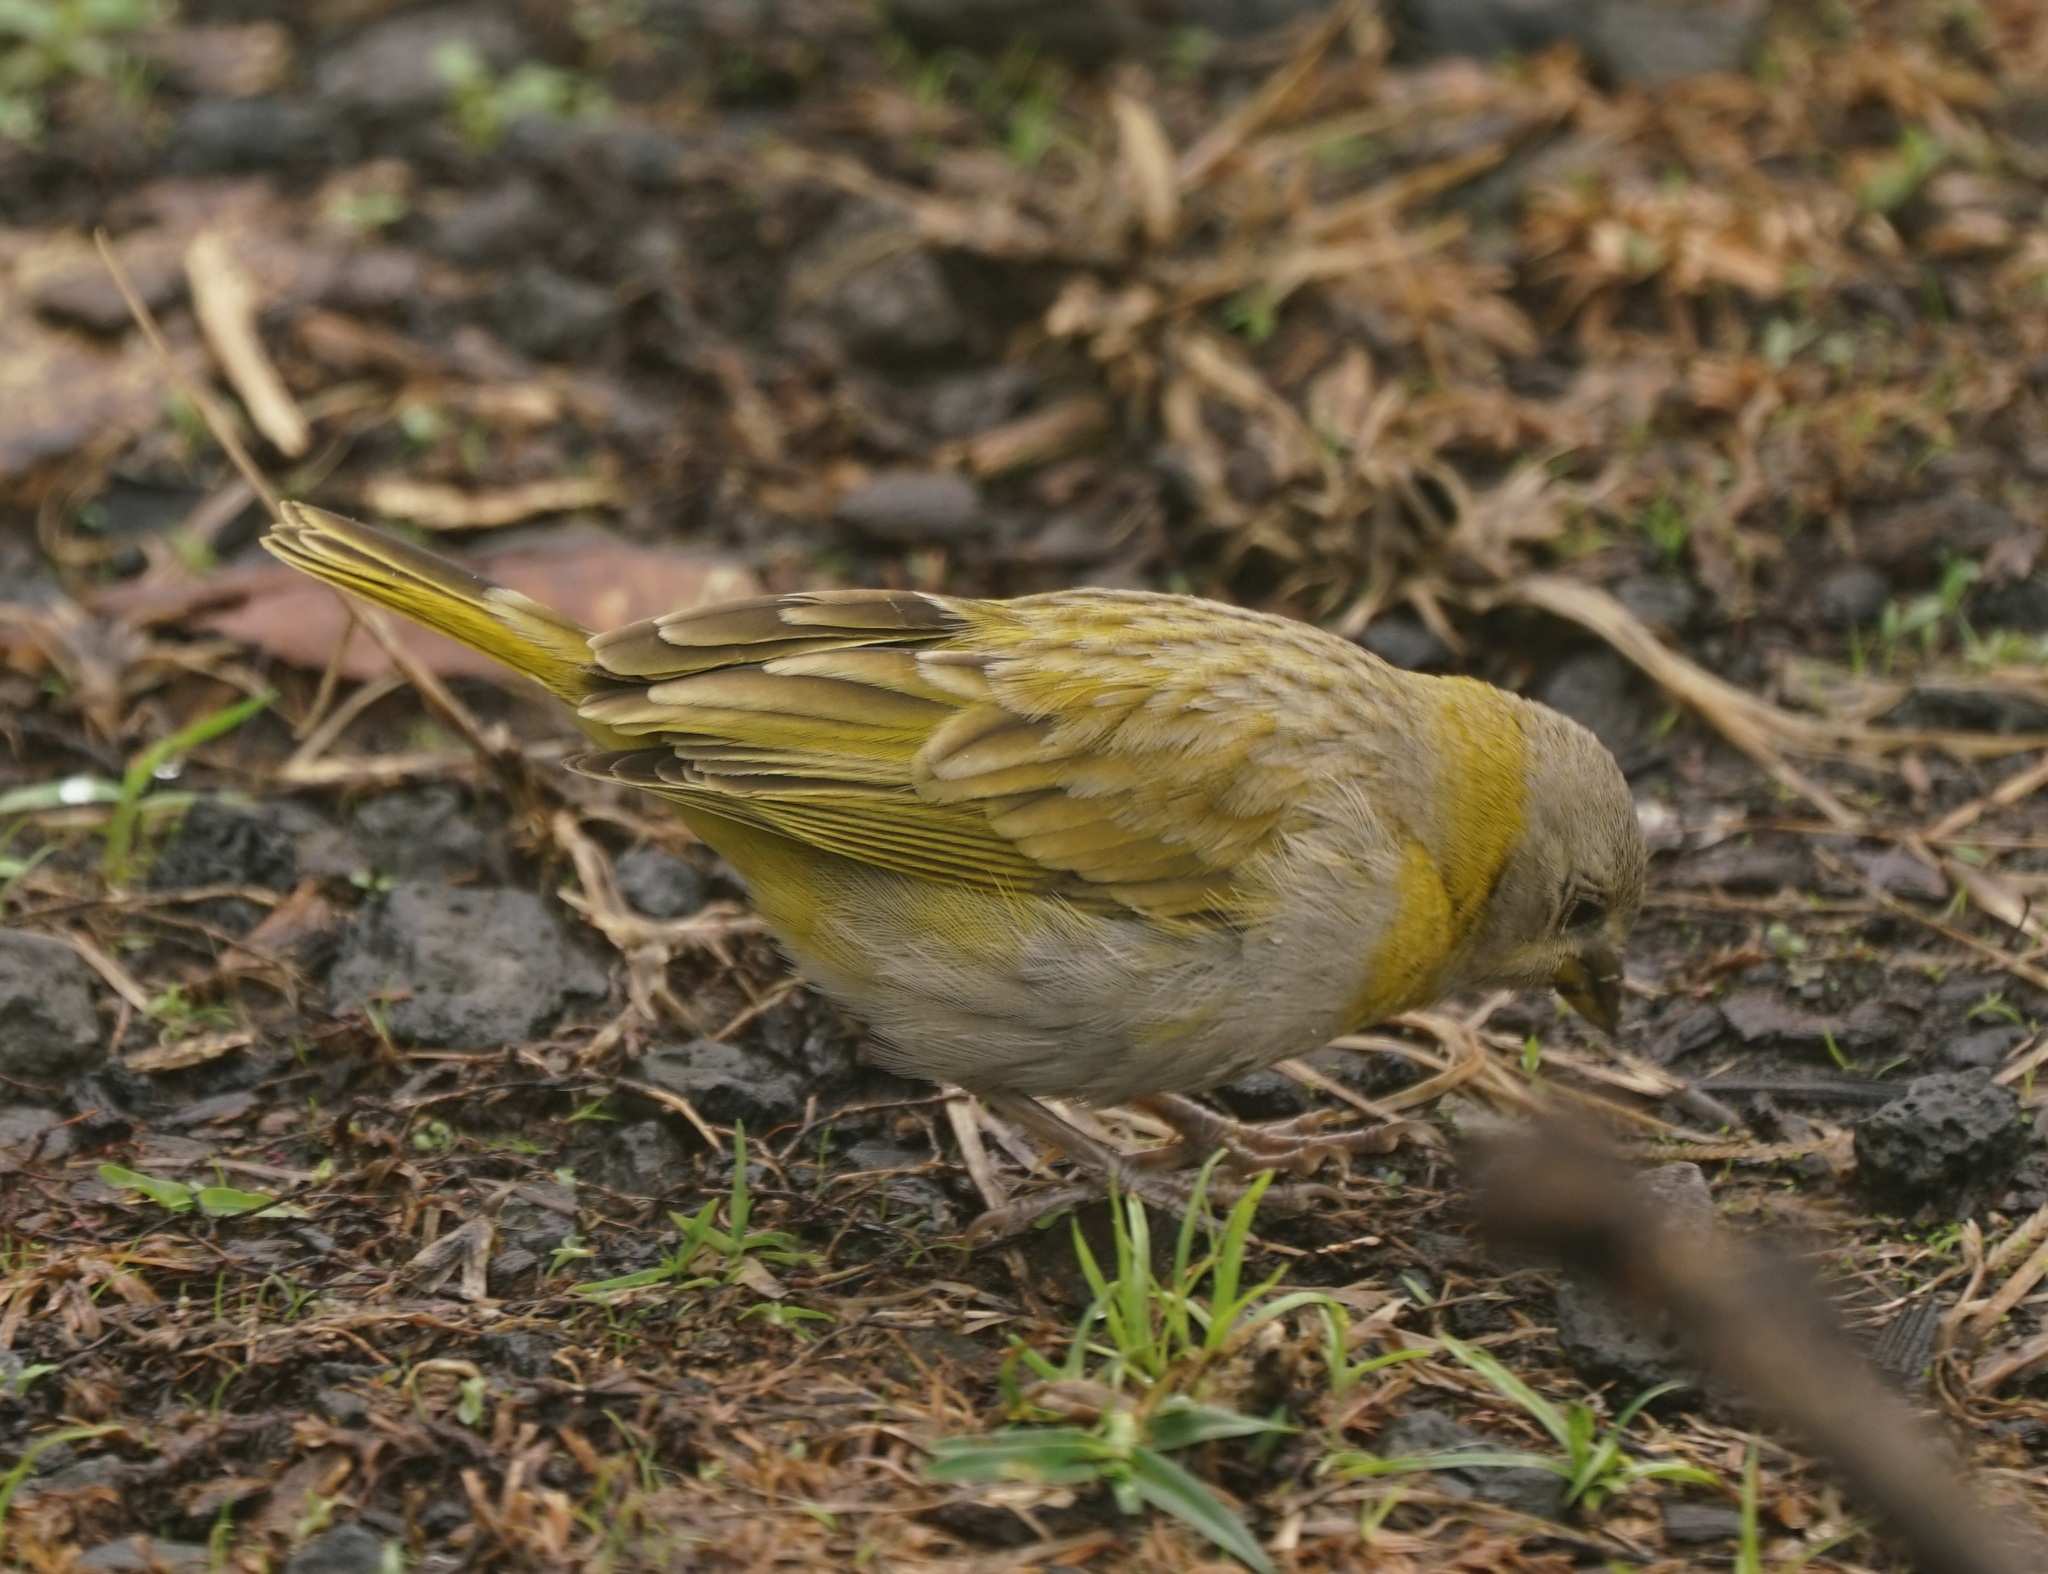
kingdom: Animalia
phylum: Chordata
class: Aves
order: Passeriformes
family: Thraupidae
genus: Sicalis
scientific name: Sicalis flaveola
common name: Saffron finch
